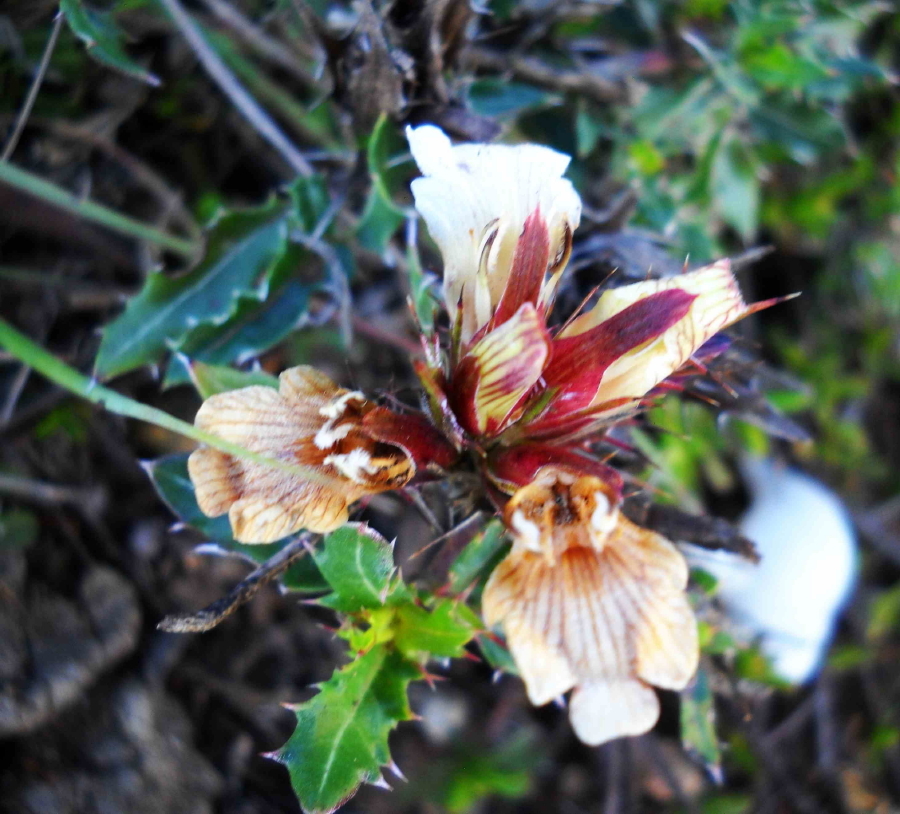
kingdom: Plantae
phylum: Tracheophyta
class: Magnoliopsida
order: Lamiales
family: Acanthaceae
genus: Blepharis
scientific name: Blepharis capensis
